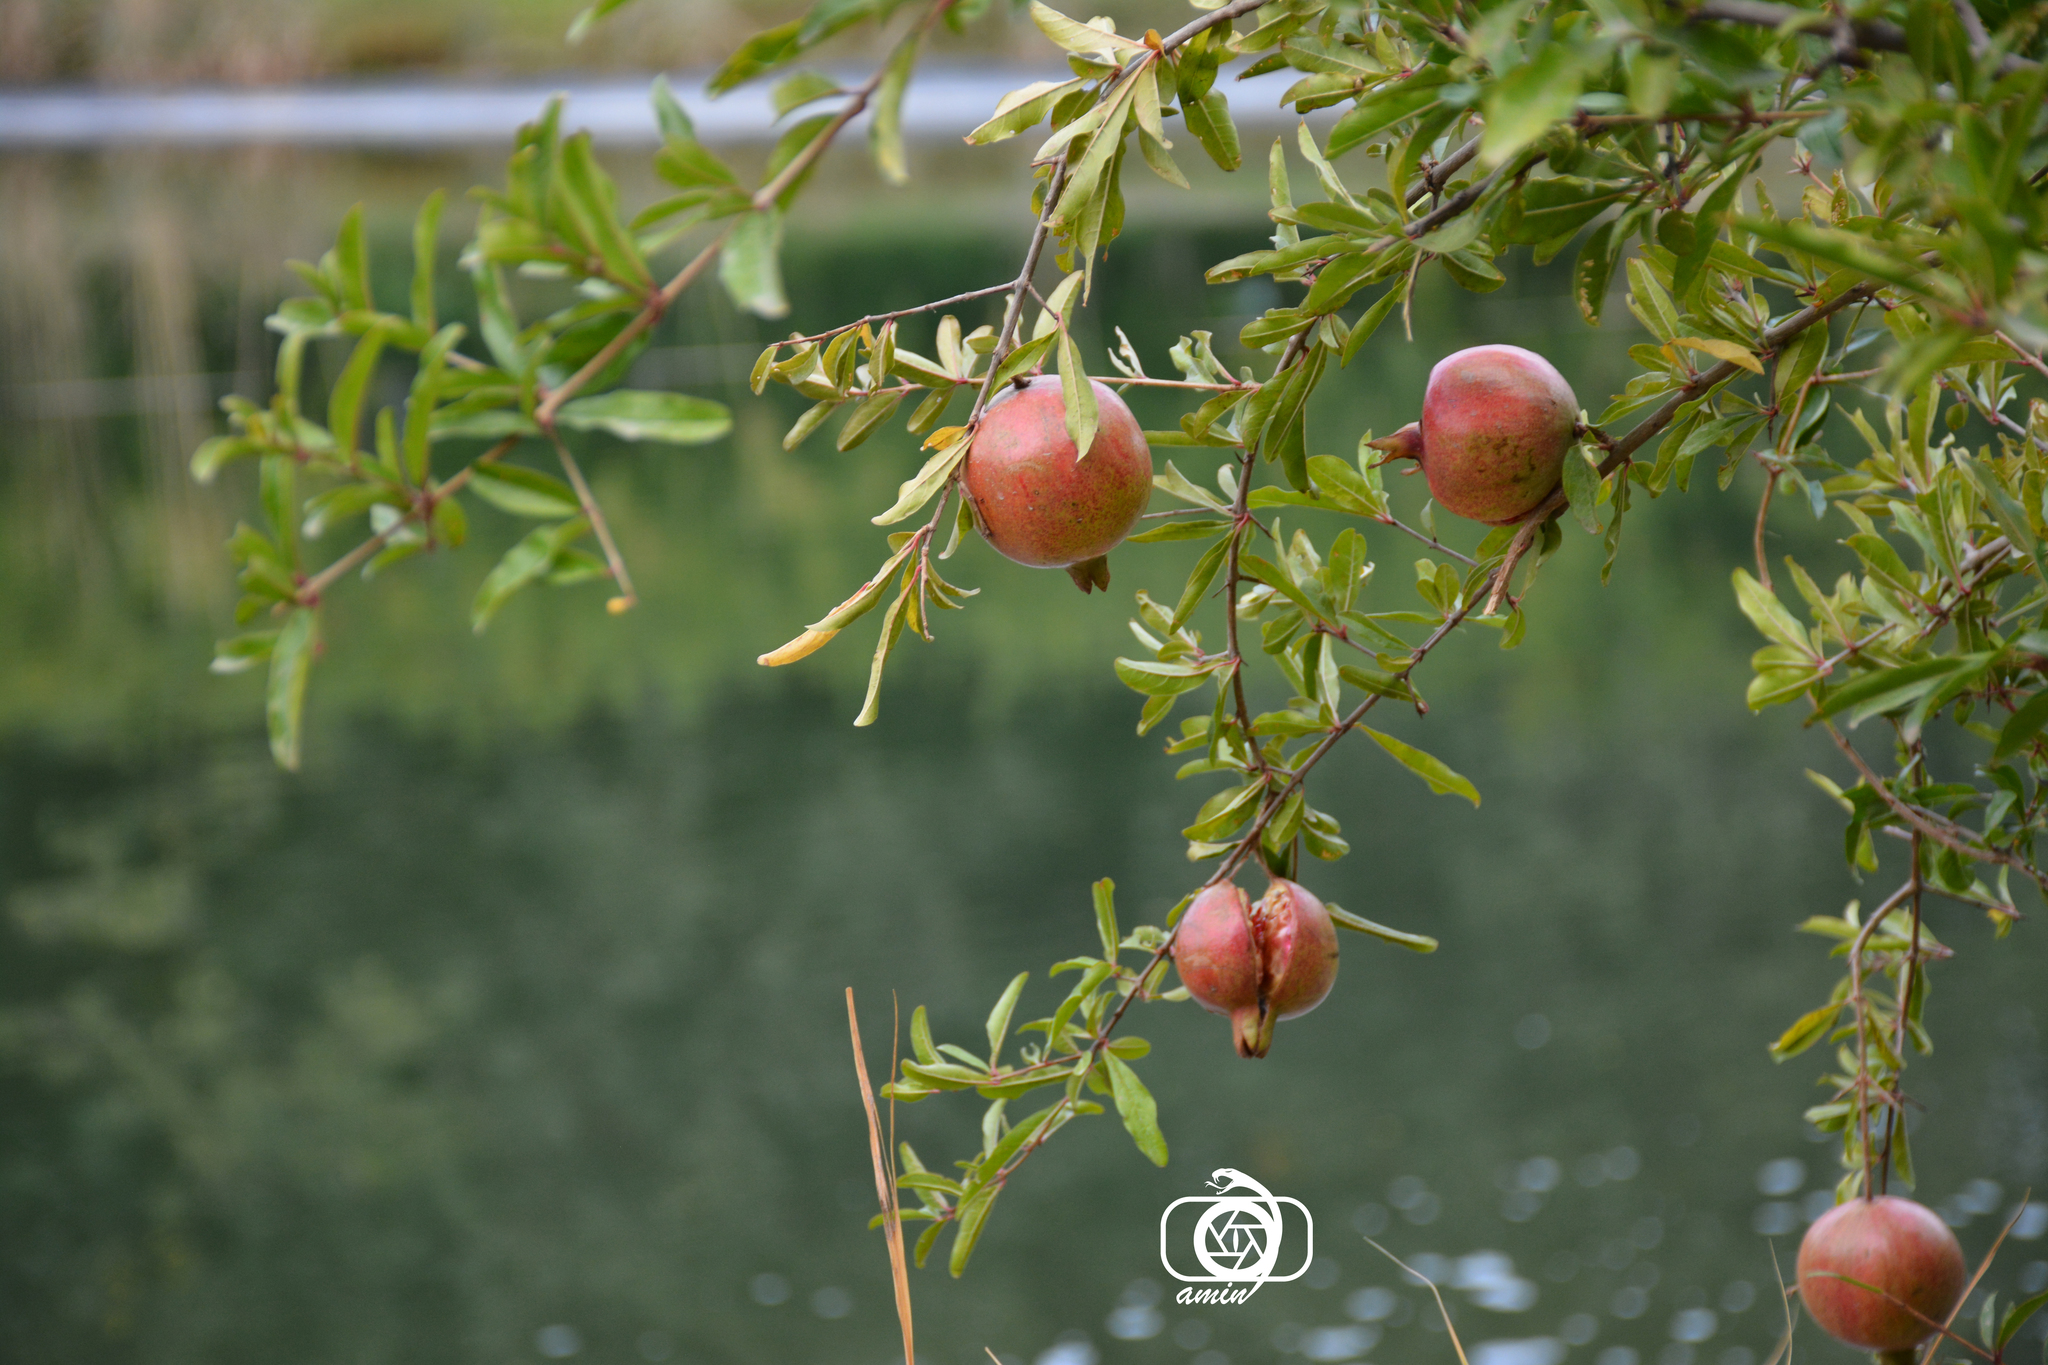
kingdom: Plantae
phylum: Tracheophyta
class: Magnoliopsida
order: Myrtales
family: Lythraceae
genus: Punica
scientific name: Punica granatum
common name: Pomegranate
